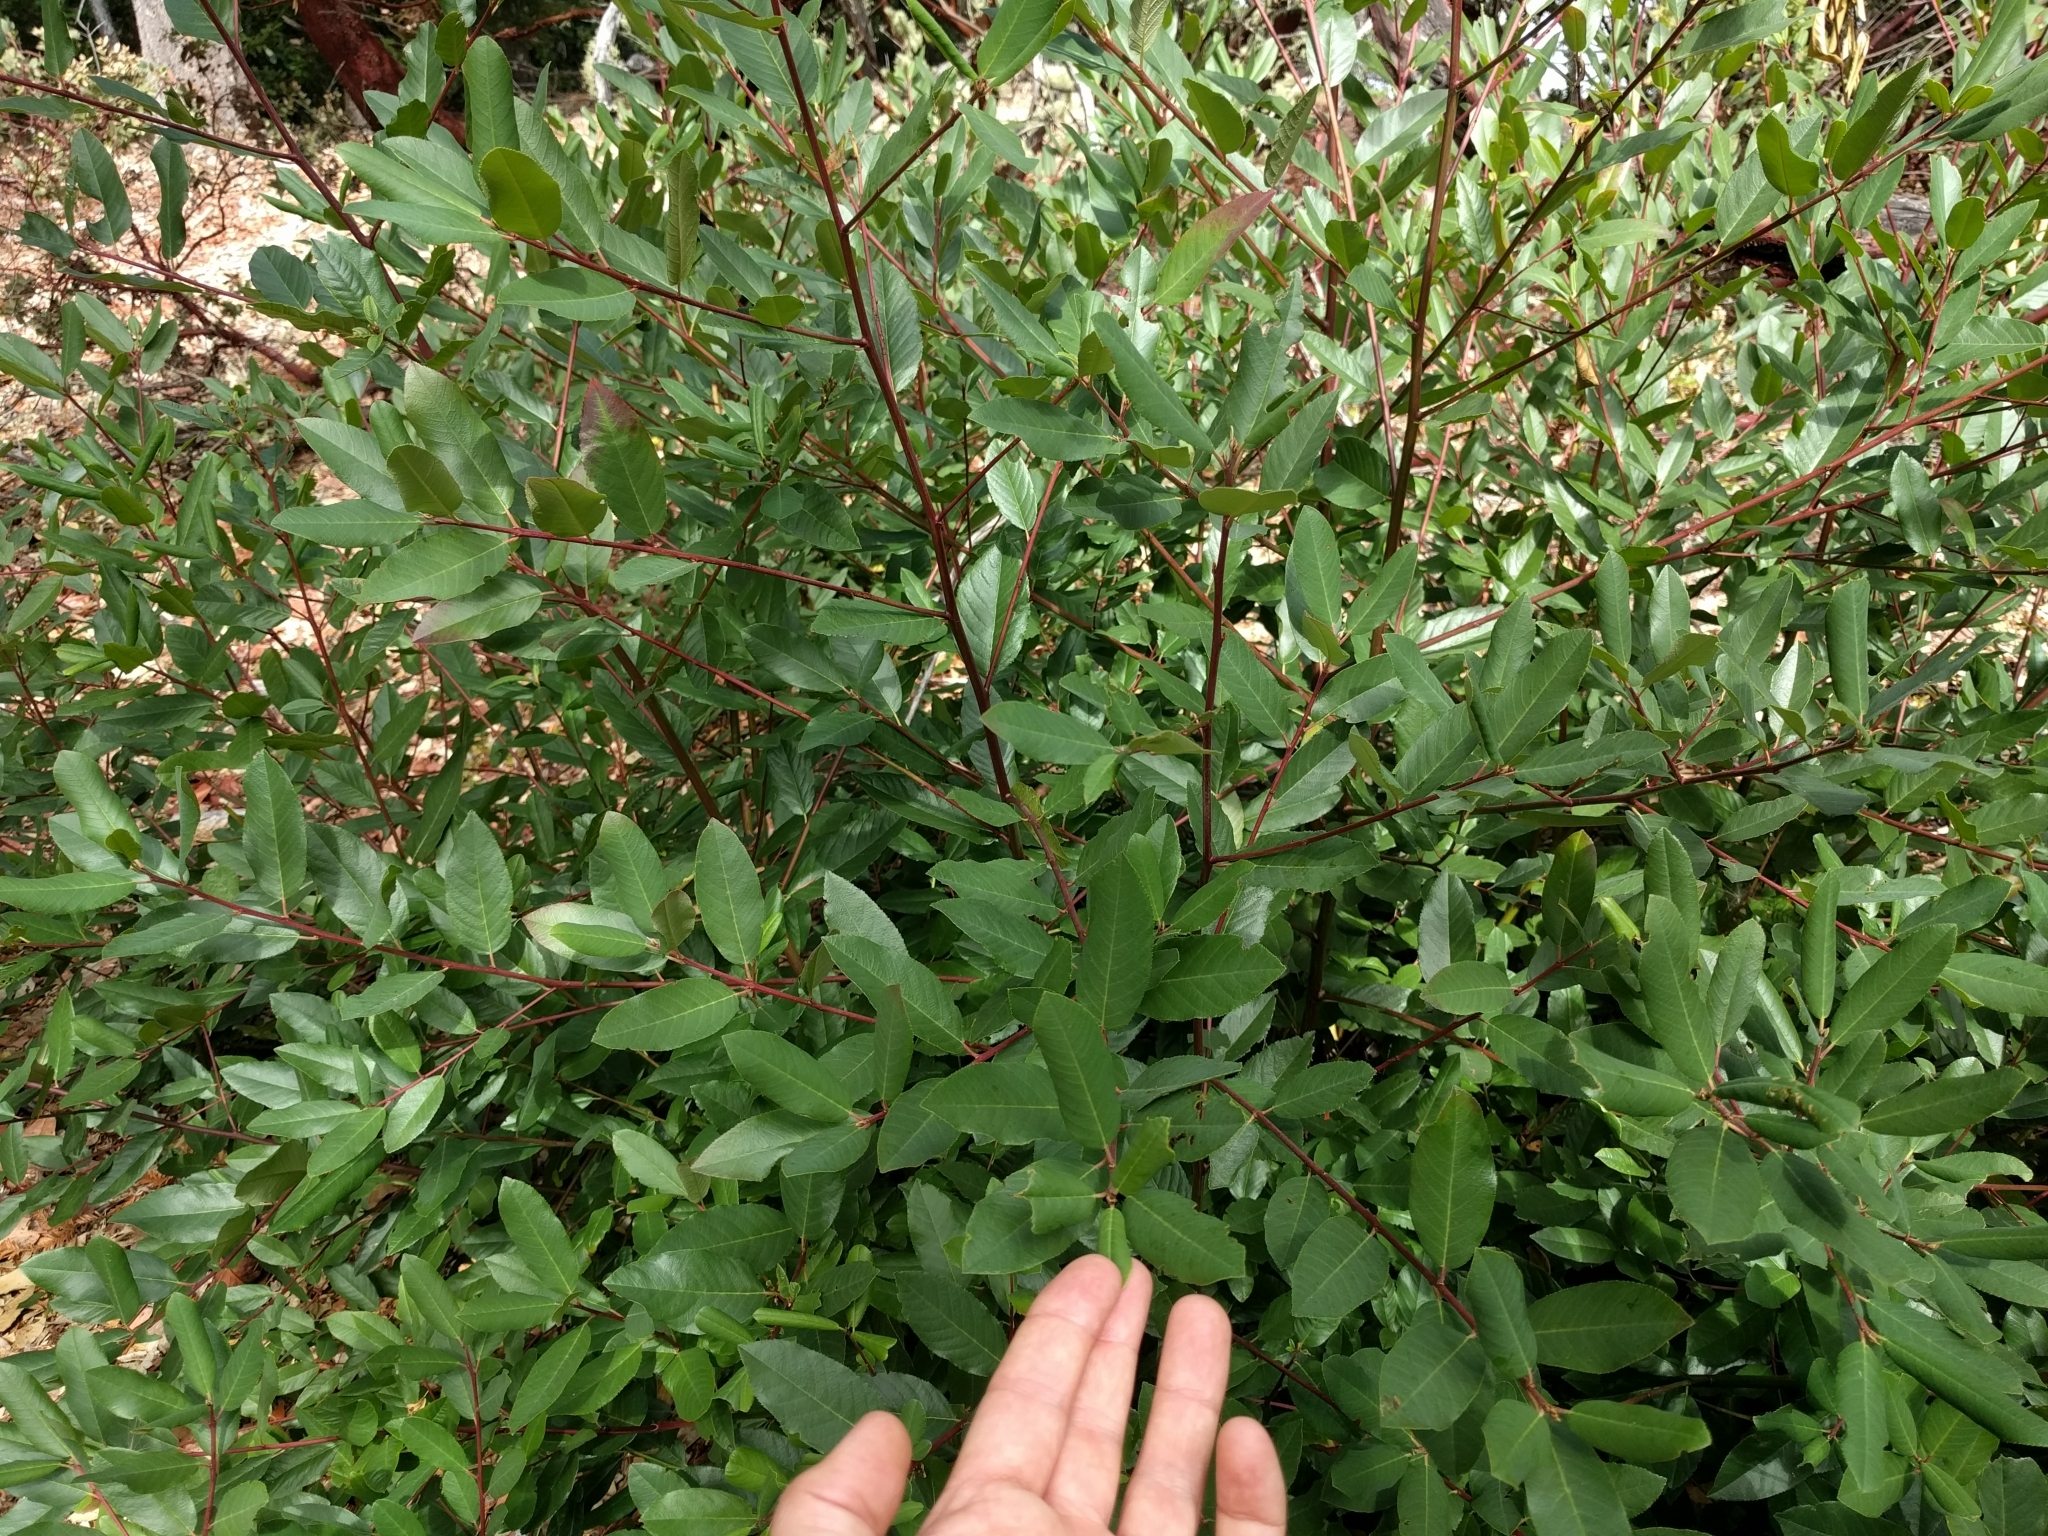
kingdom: Plantae
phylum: Tracheophyta
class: Magnoliopsida
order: Rosales
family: Rhamnaceae
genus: Frangula
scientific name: Frangula californica
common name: California buckthorn
